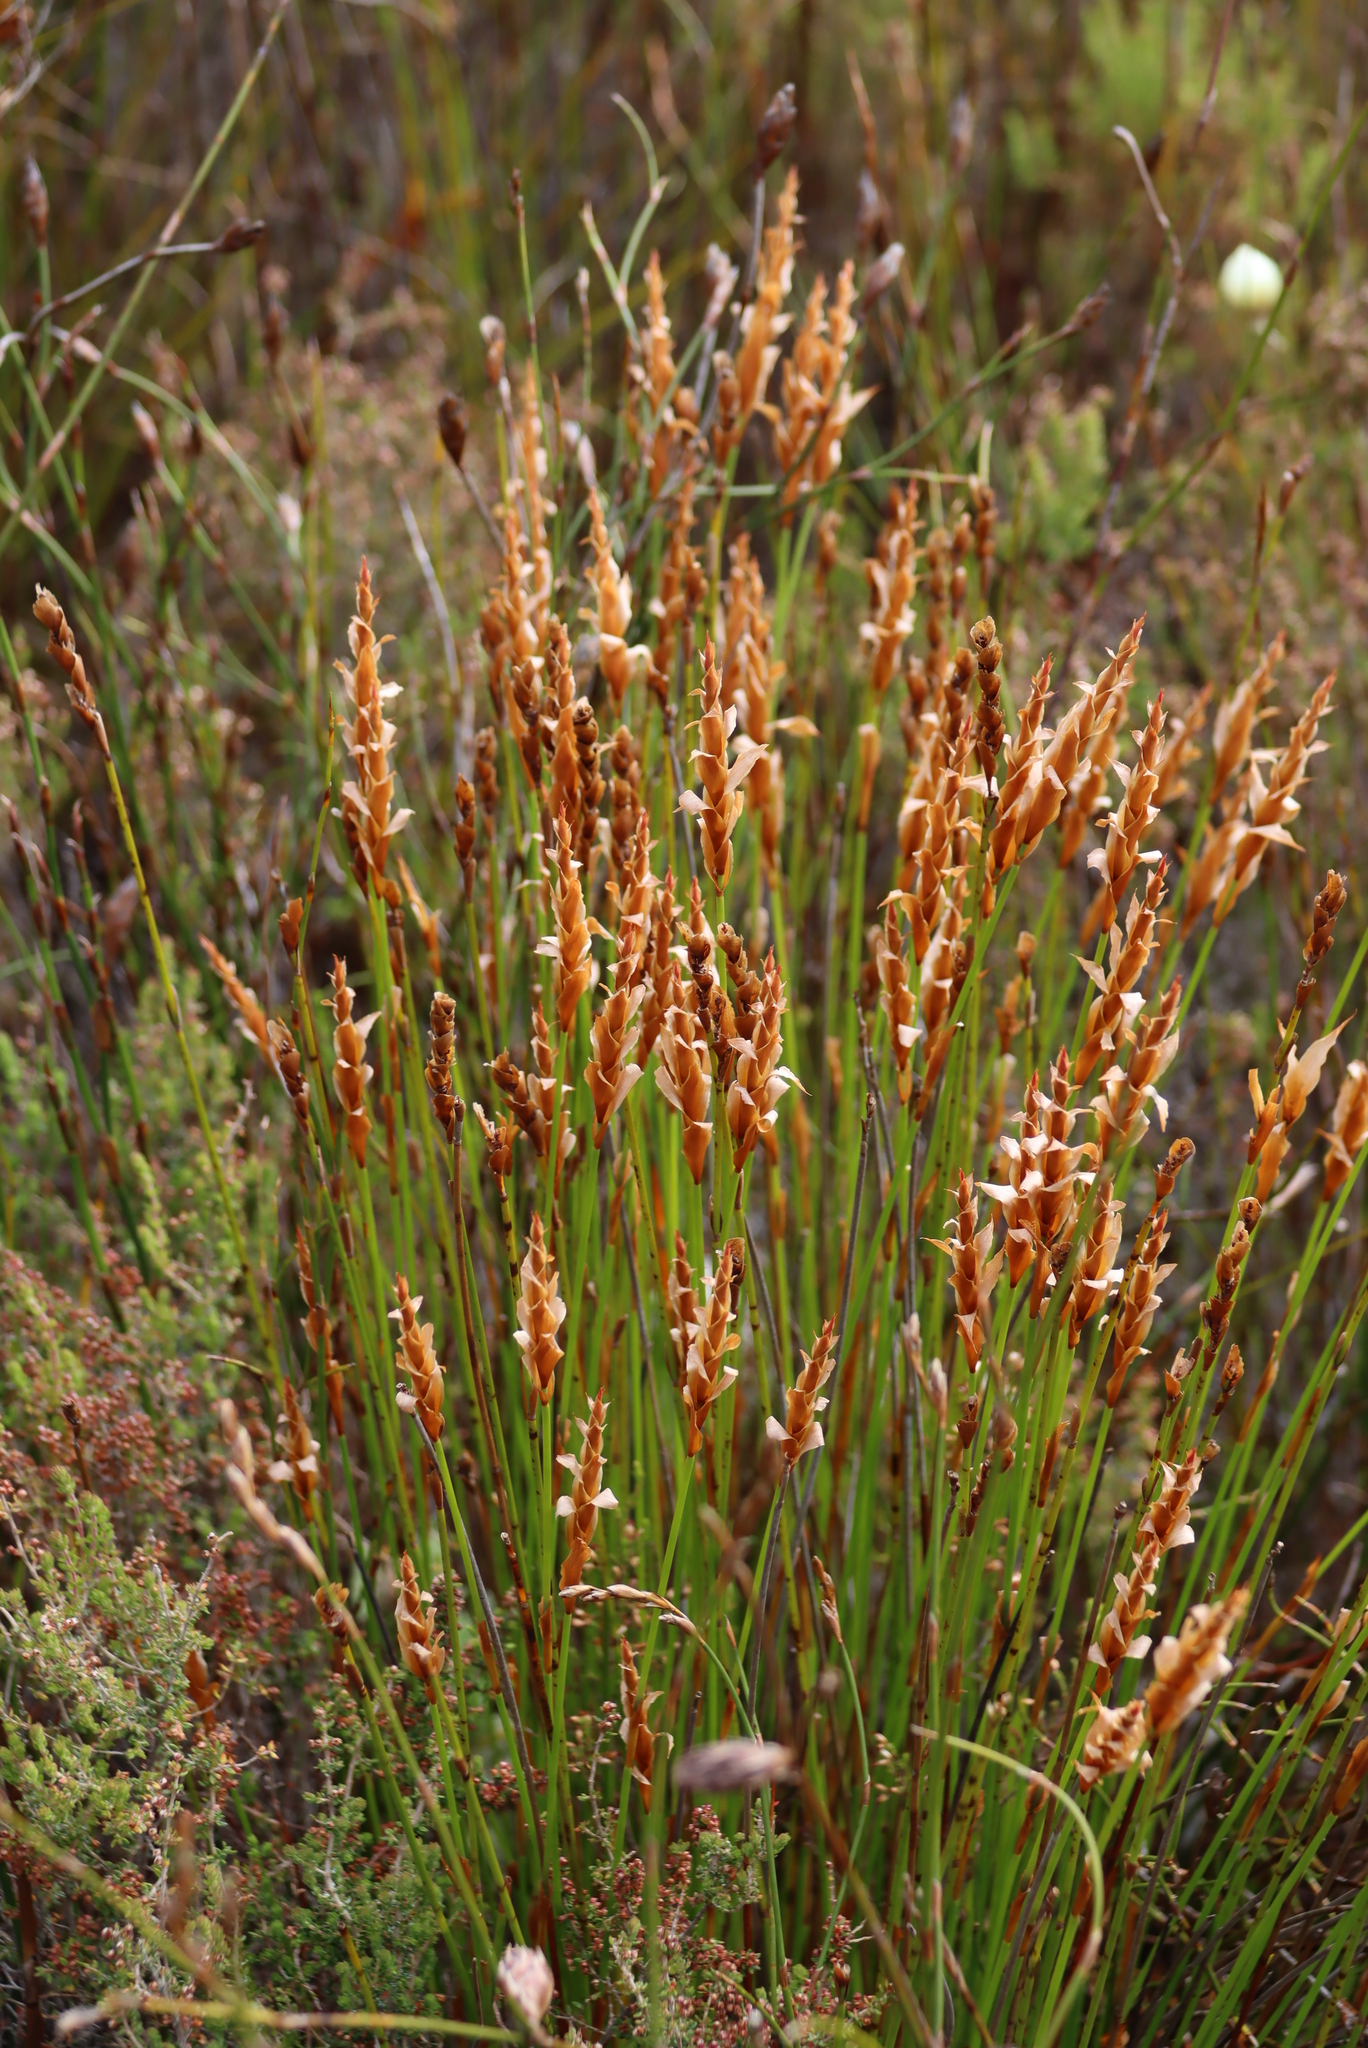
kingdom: Plantae
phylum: Tracheophyta
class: Liliopsida
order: Poales
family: Restionaceae
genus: Elegia
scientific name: Elegia spathacea
